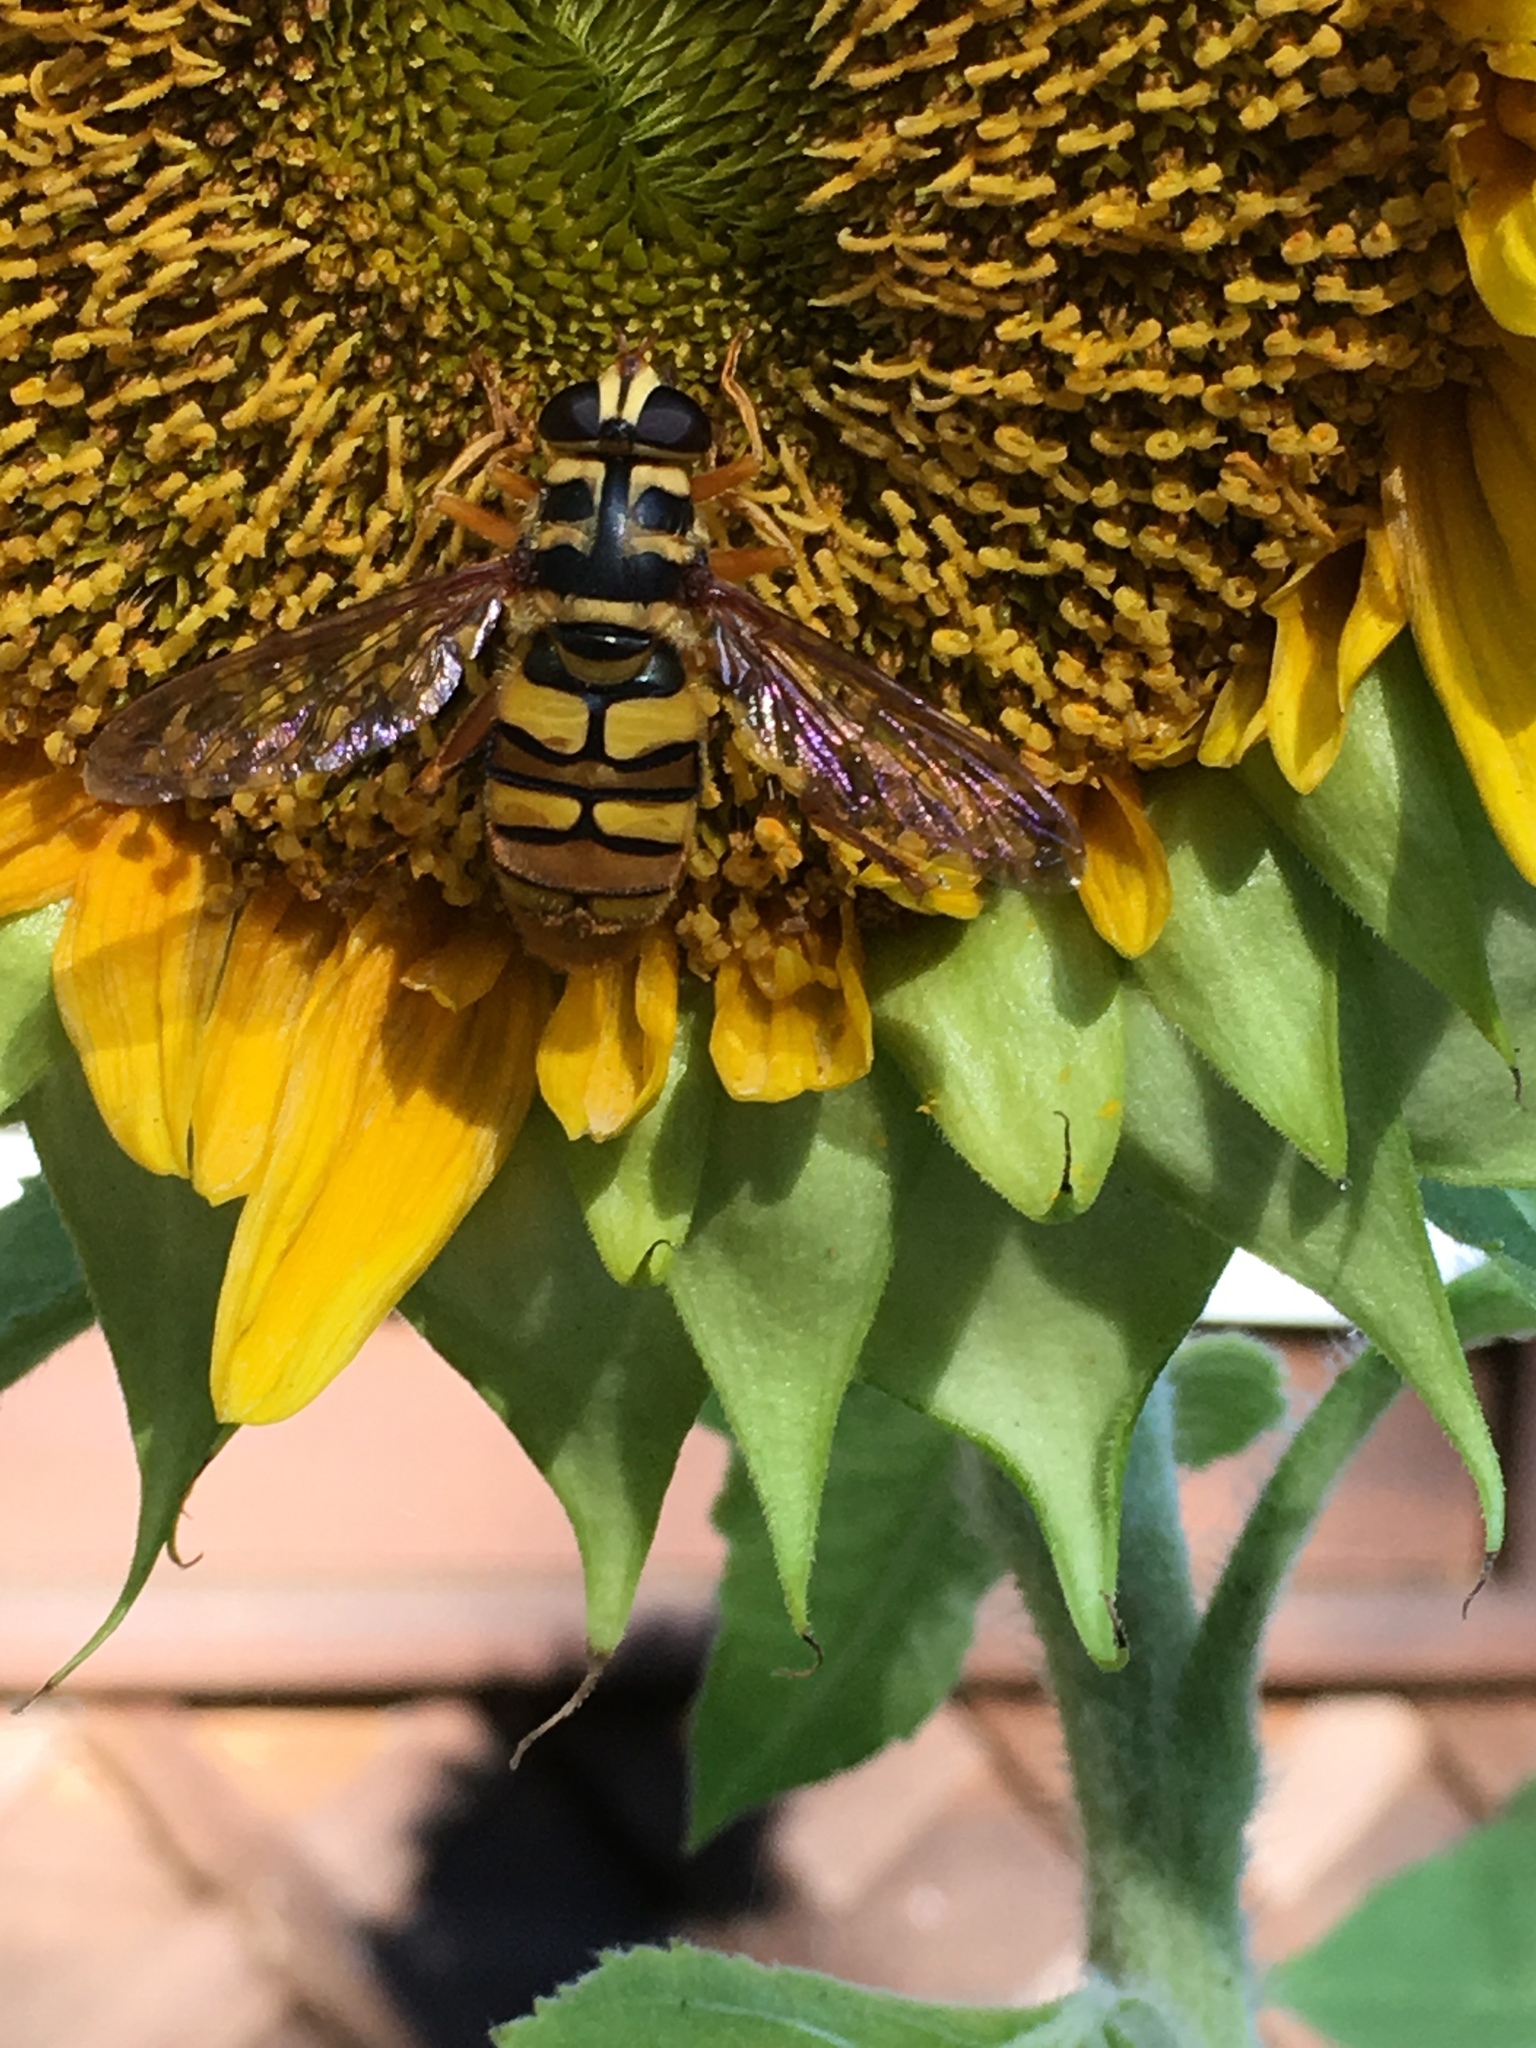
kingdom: Animalia
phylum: Arthropoda
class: Insecta
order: Diptera
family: Syrphidae
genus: Milesia
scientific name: Milesia virginiensis
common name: Virginia giant
